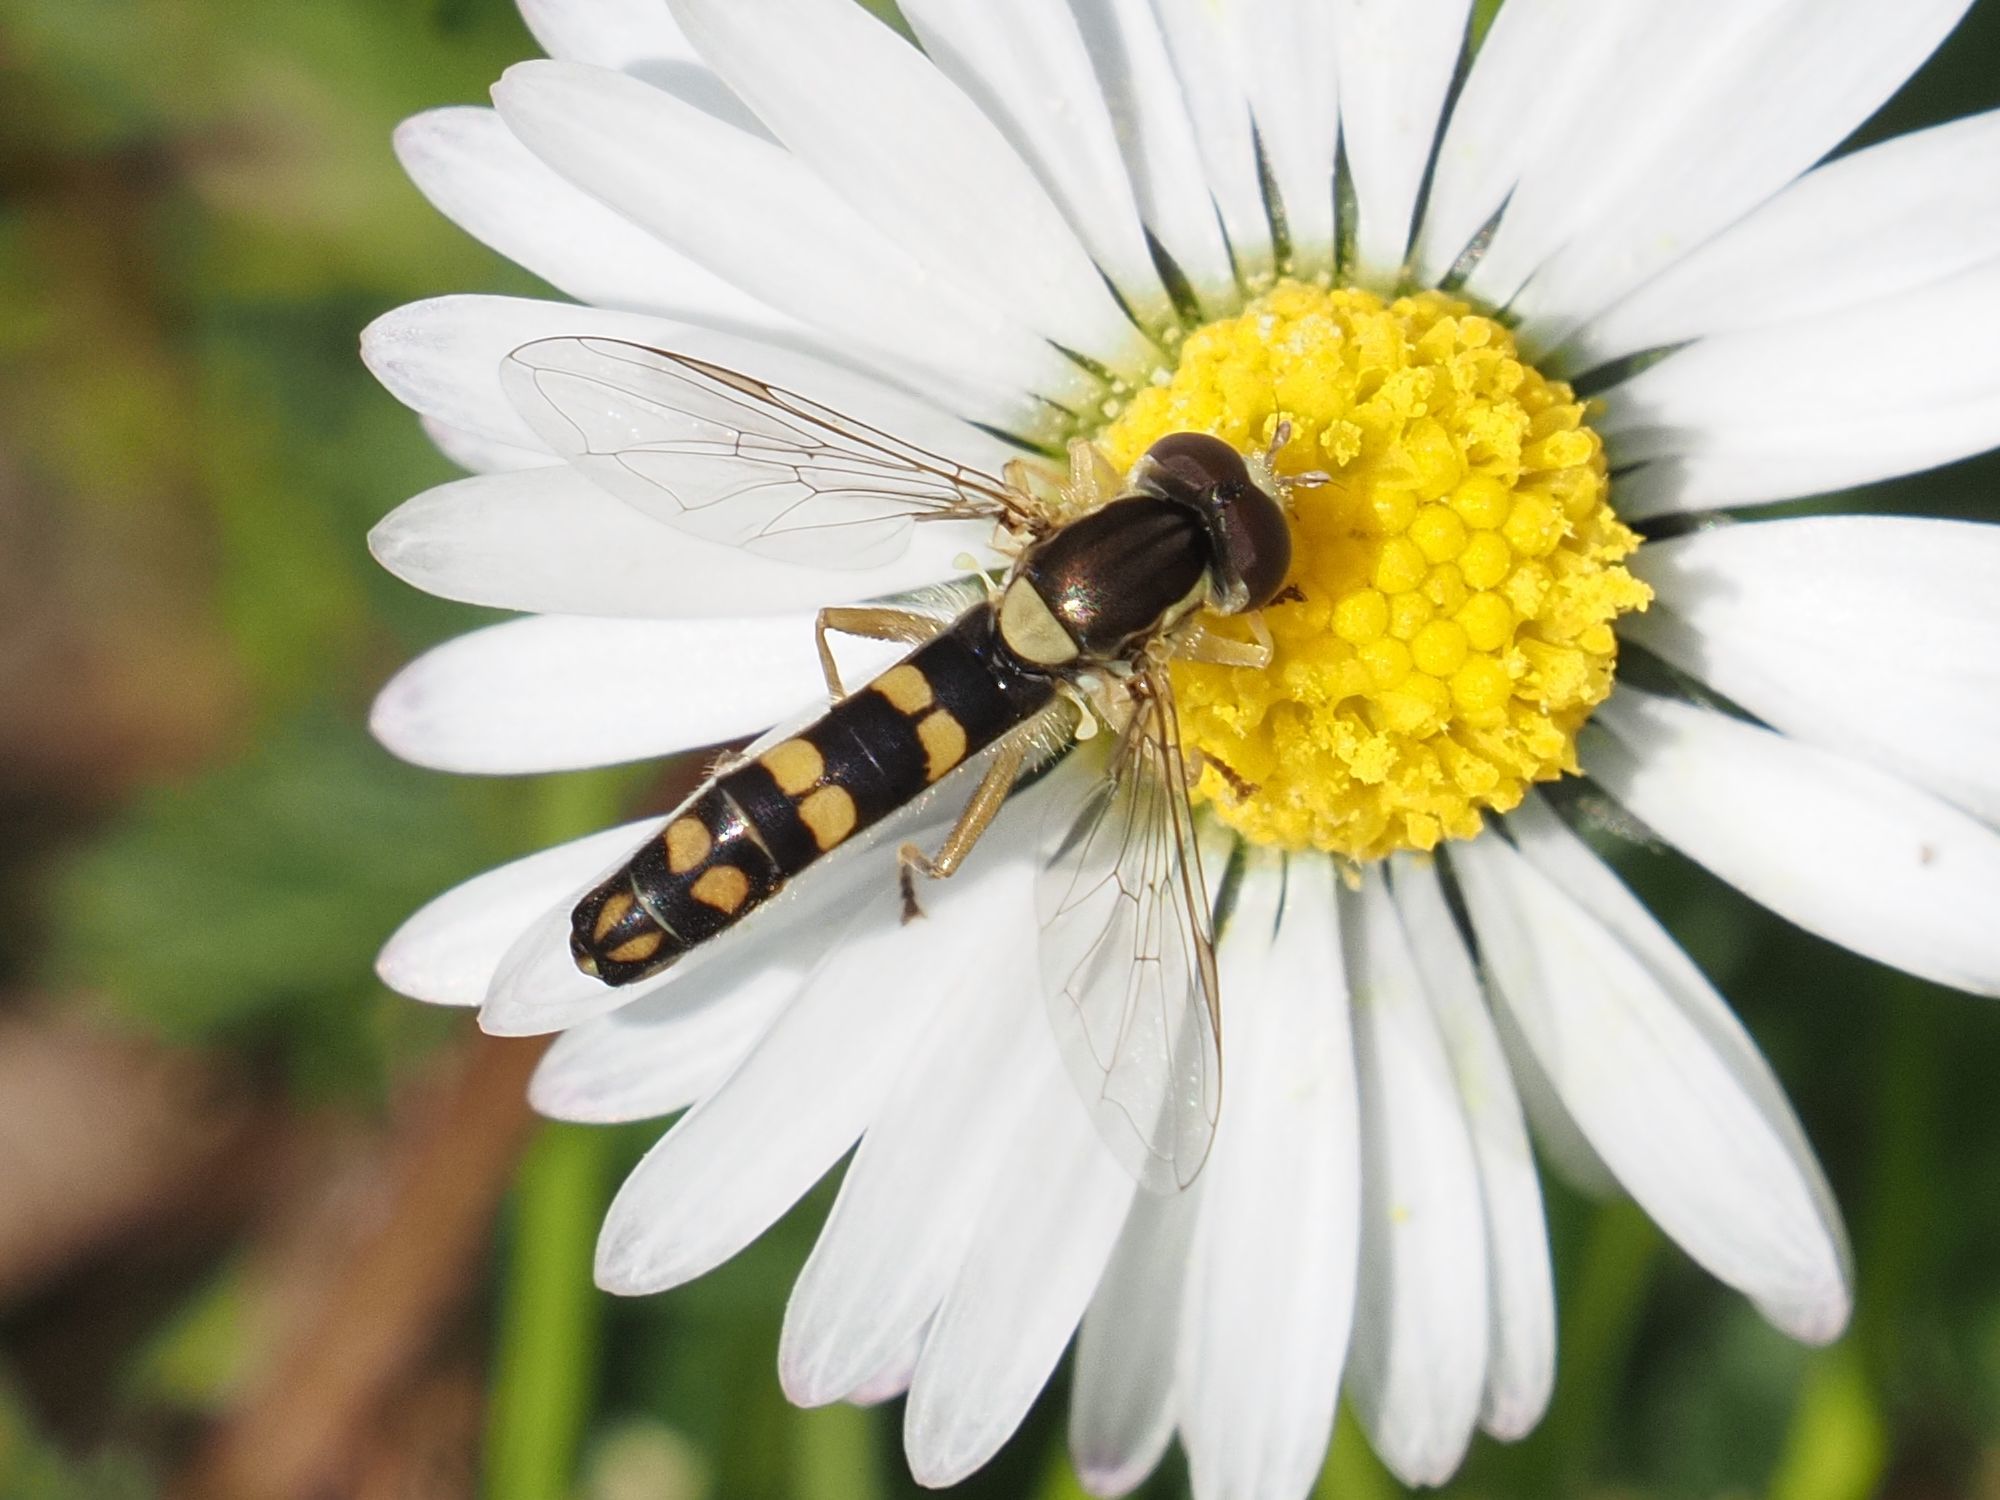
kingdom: Animalia
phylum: Arthropoda
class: Insecta
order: Diptera
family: Syrphidae
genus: Sphaerophoria
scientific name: Sphaerophoria
